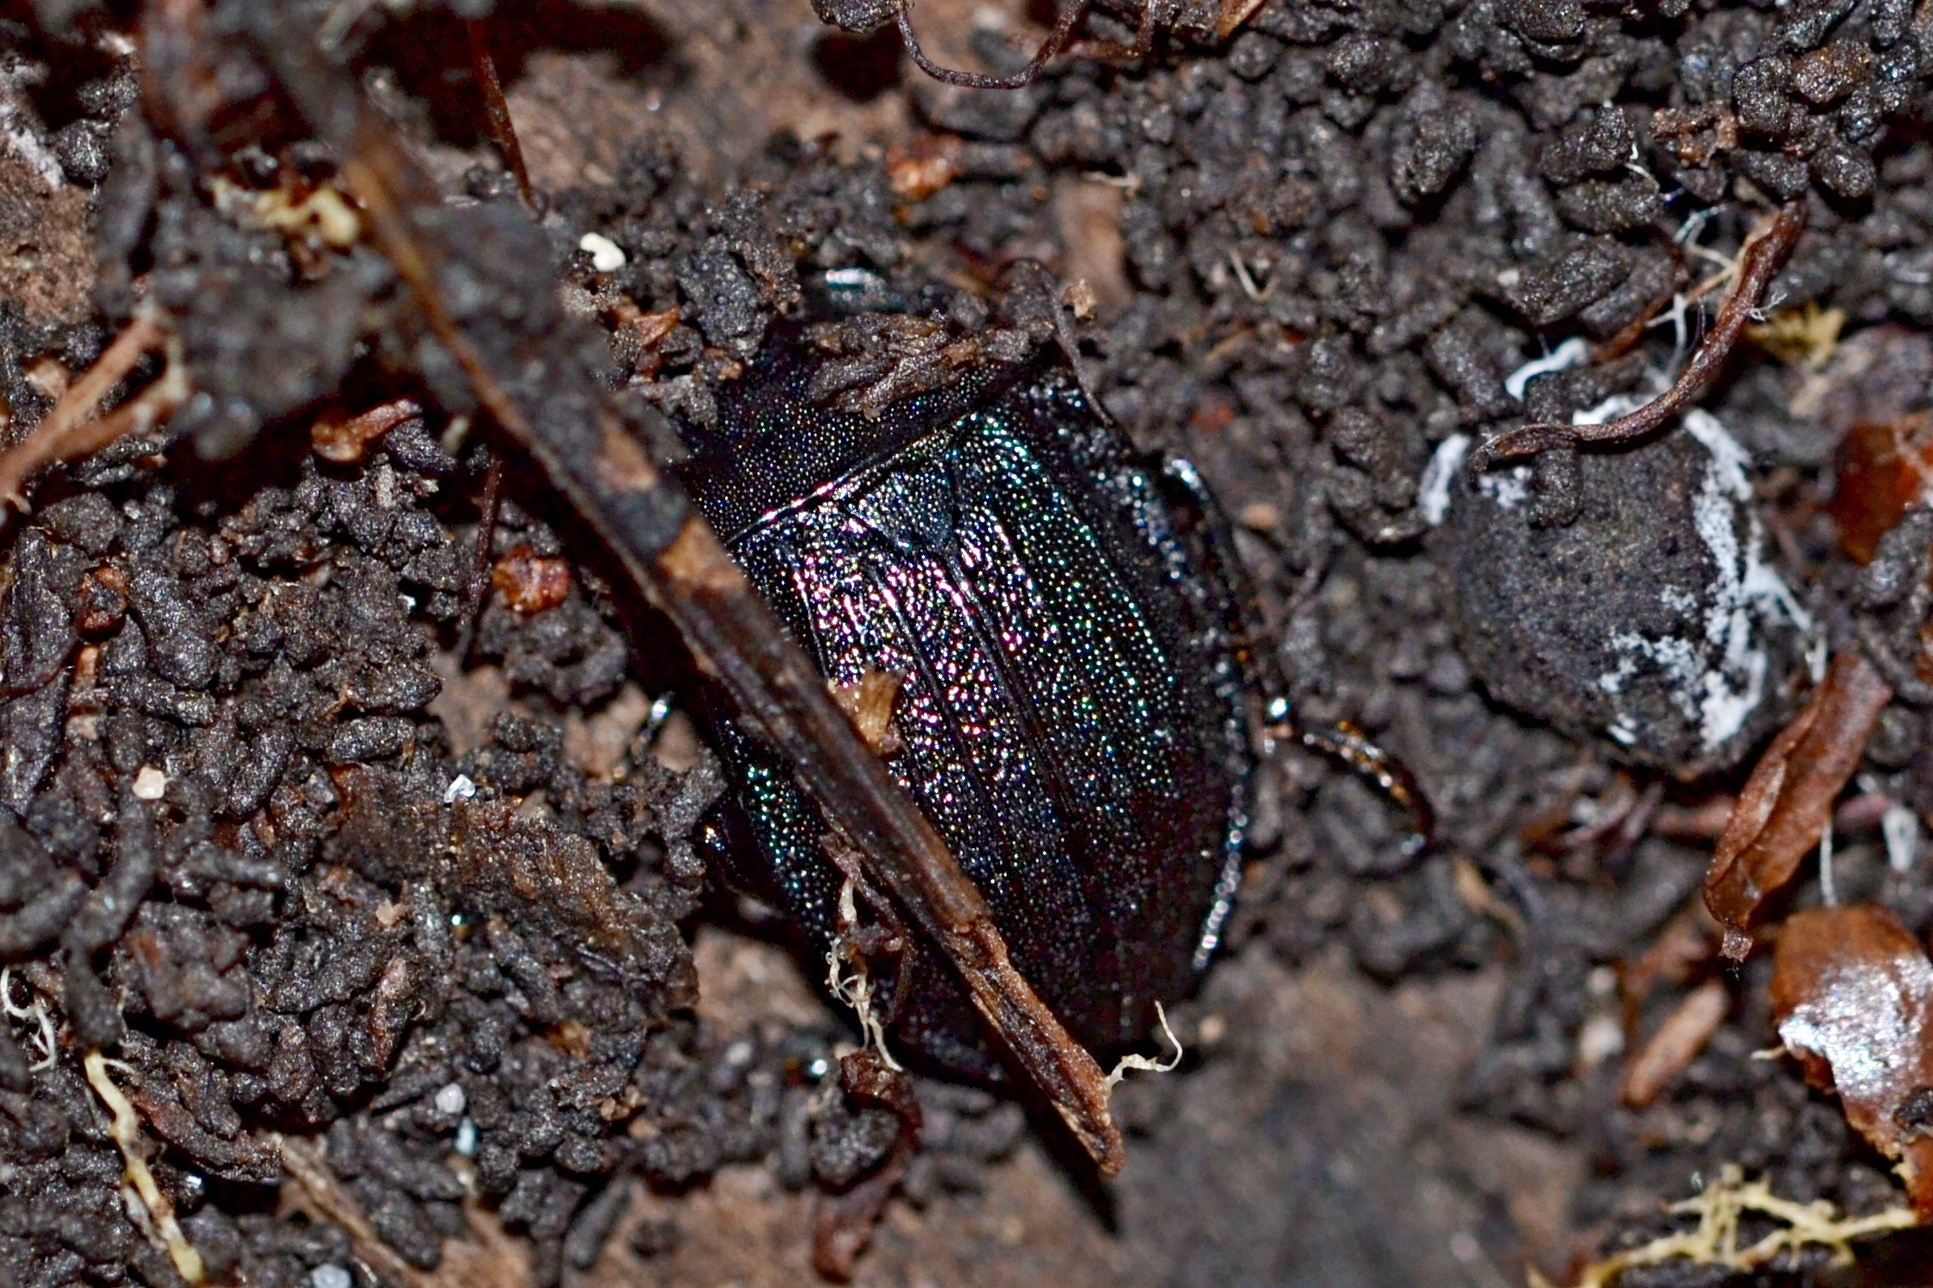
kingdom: Animalia
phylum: Arthropoda
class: Insecta
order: Coleoptera
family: Staphylinidae
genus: Silpha
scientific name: Silpha atrata
